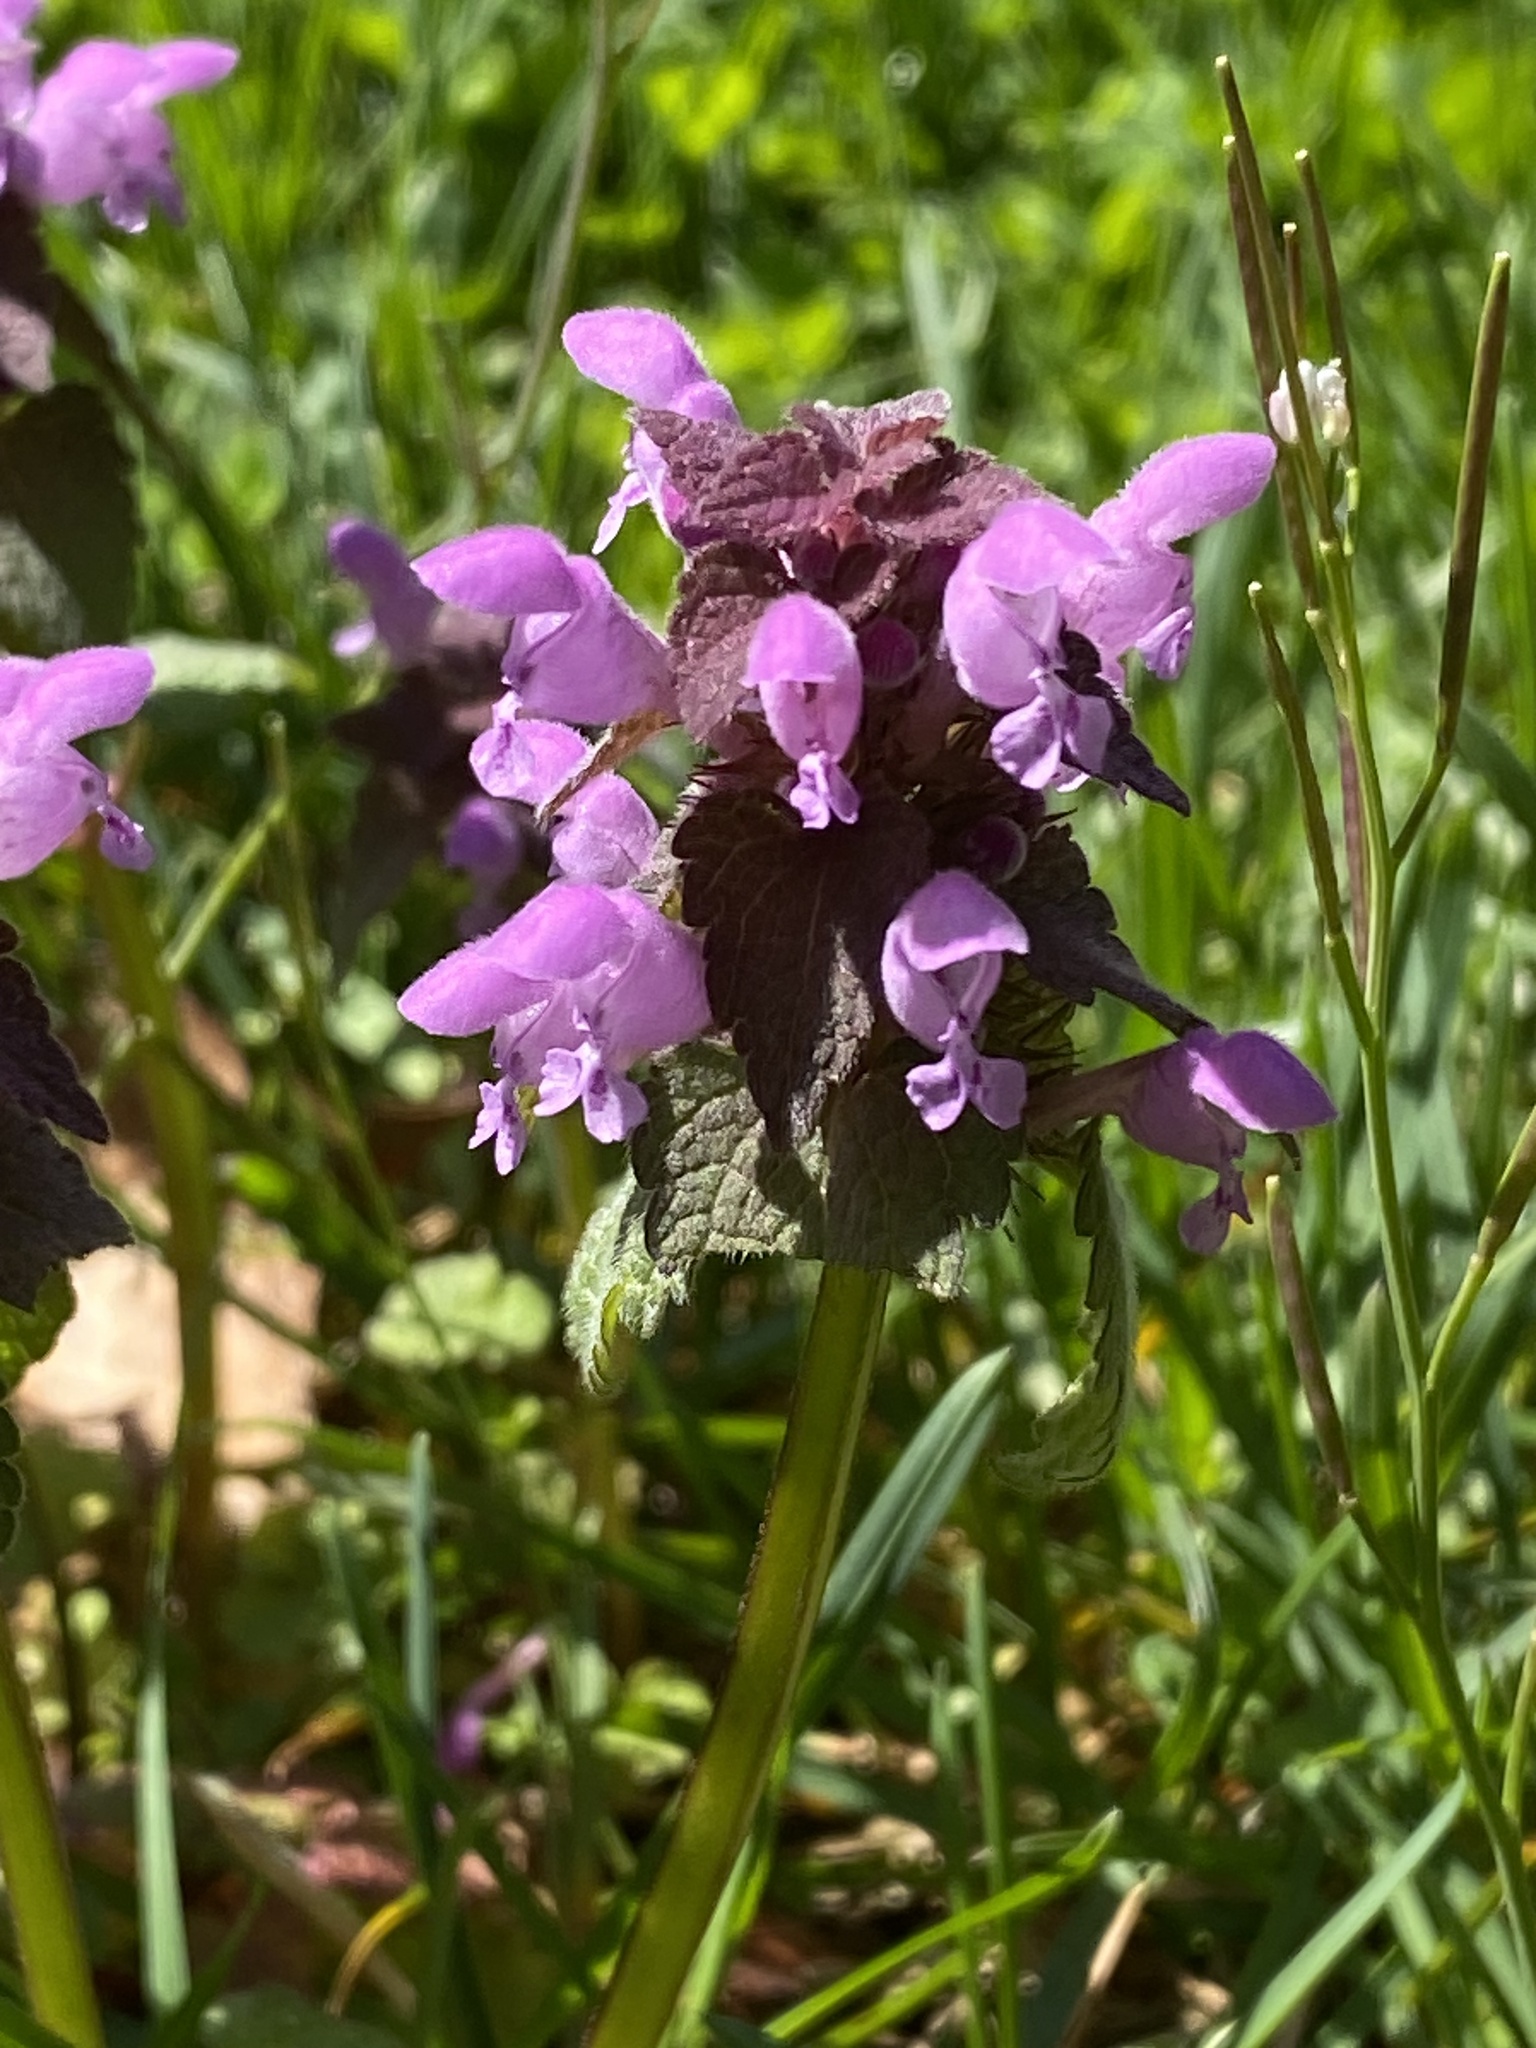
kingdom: Plantae
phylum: Tracheophyta
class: Magnoliopsida
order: Lamiales
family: Lamiaceae
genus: Lamium
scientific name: Lamium purpureum
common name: Red dead-nettle
